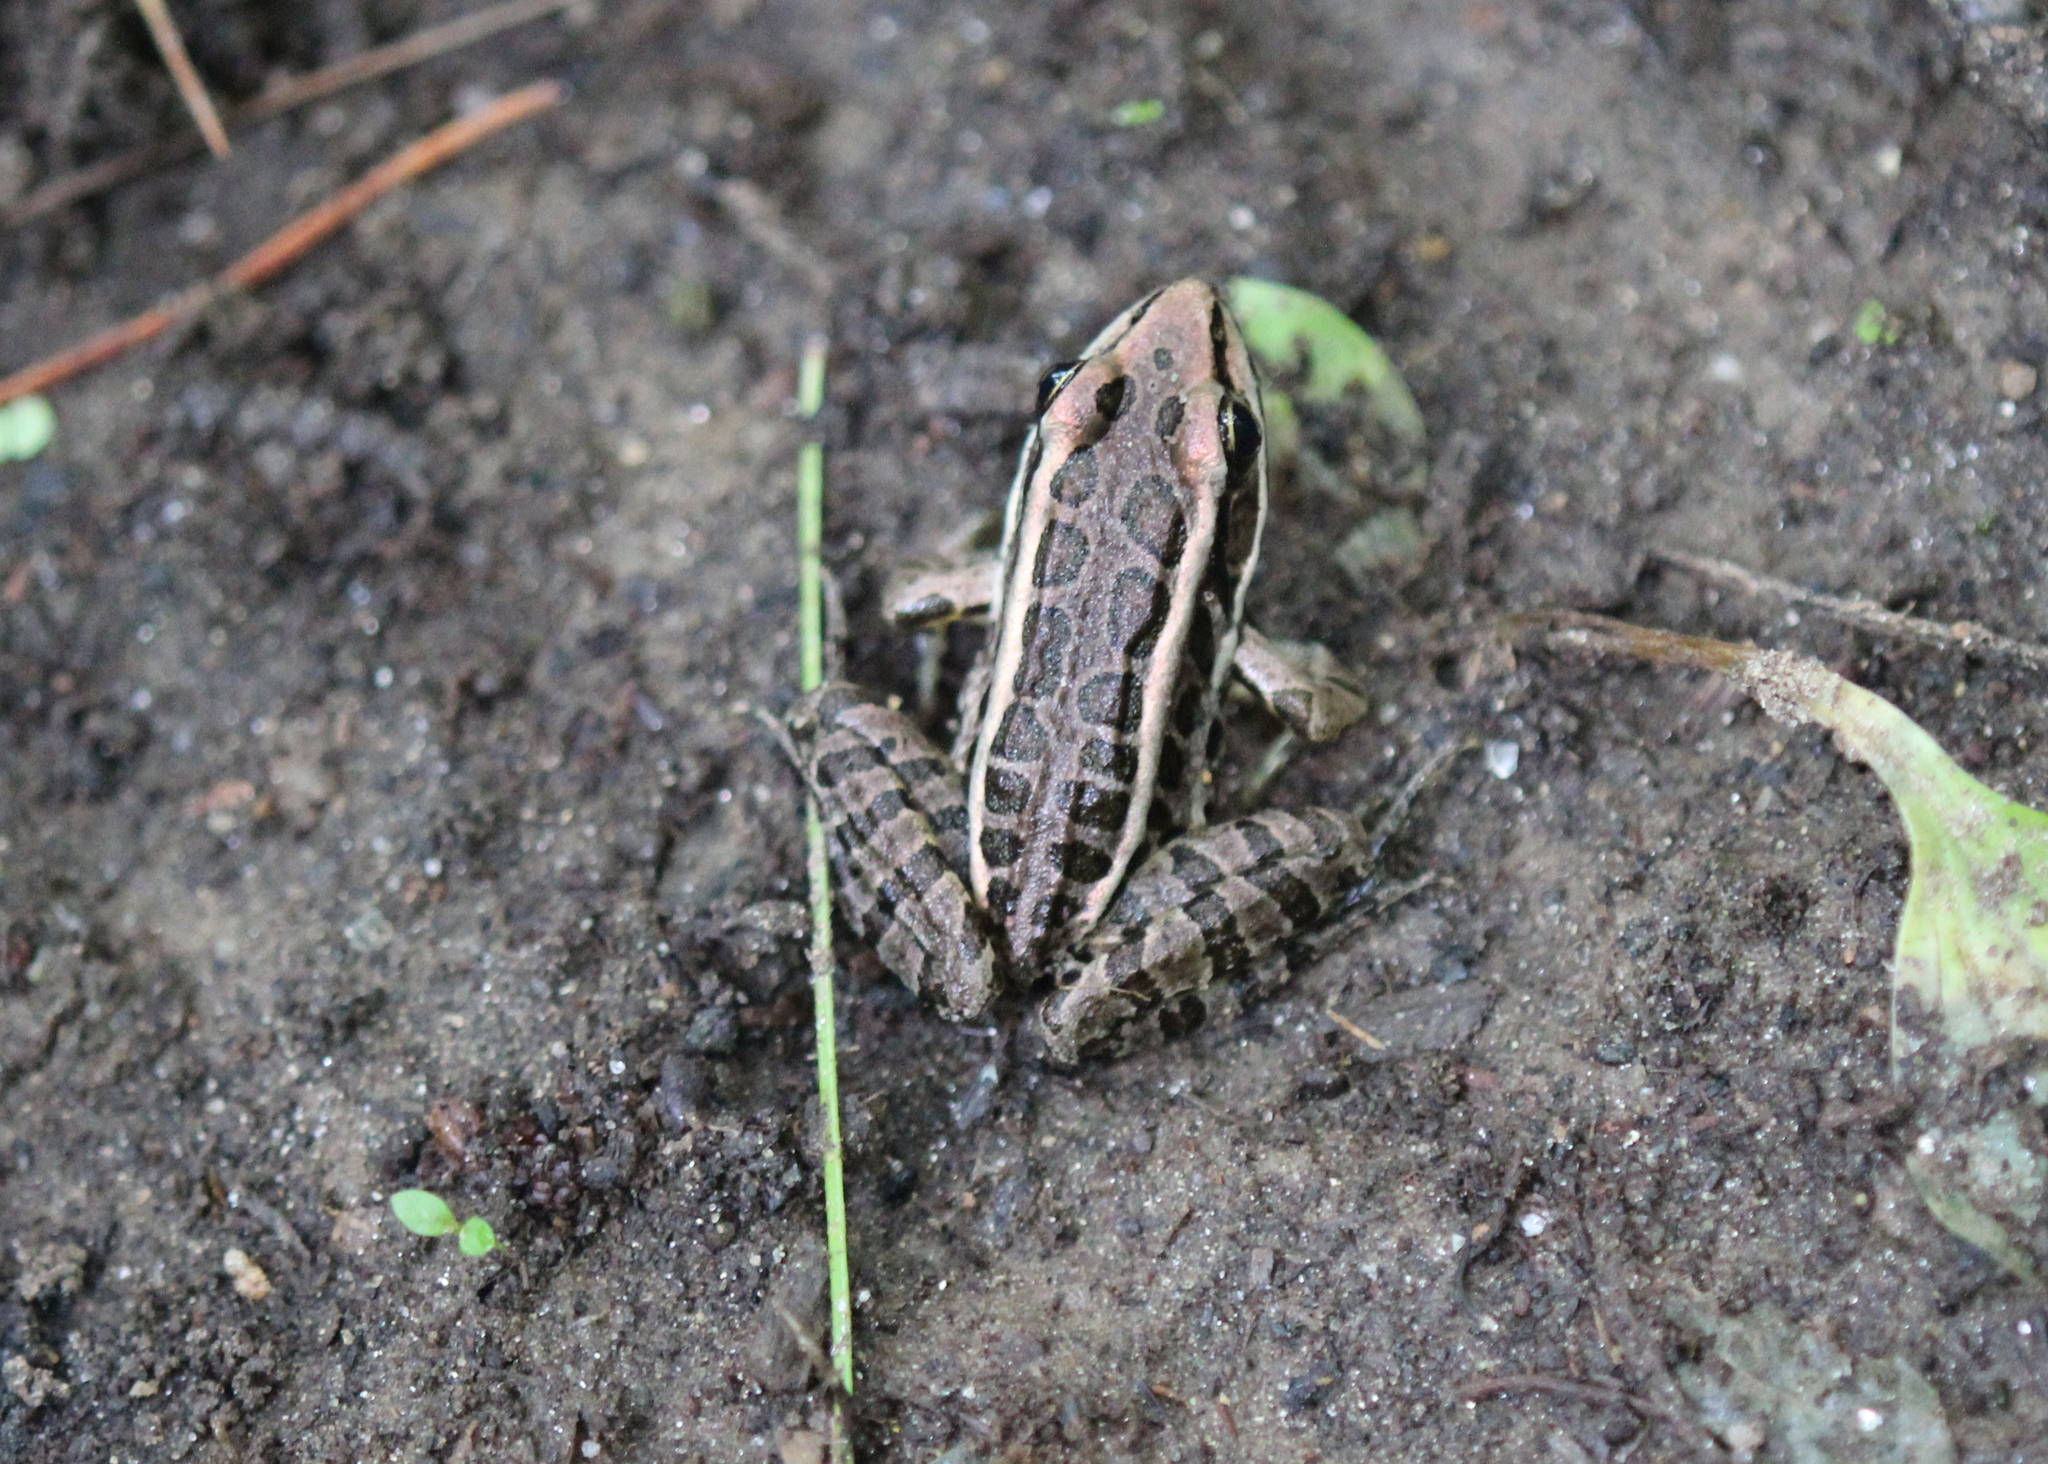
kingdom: Animalia
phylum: Chordata
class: Amphibia
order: Anura
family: Ranidae
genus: Lithobates
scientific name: Lithobates palustris
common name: Pickerel frog
